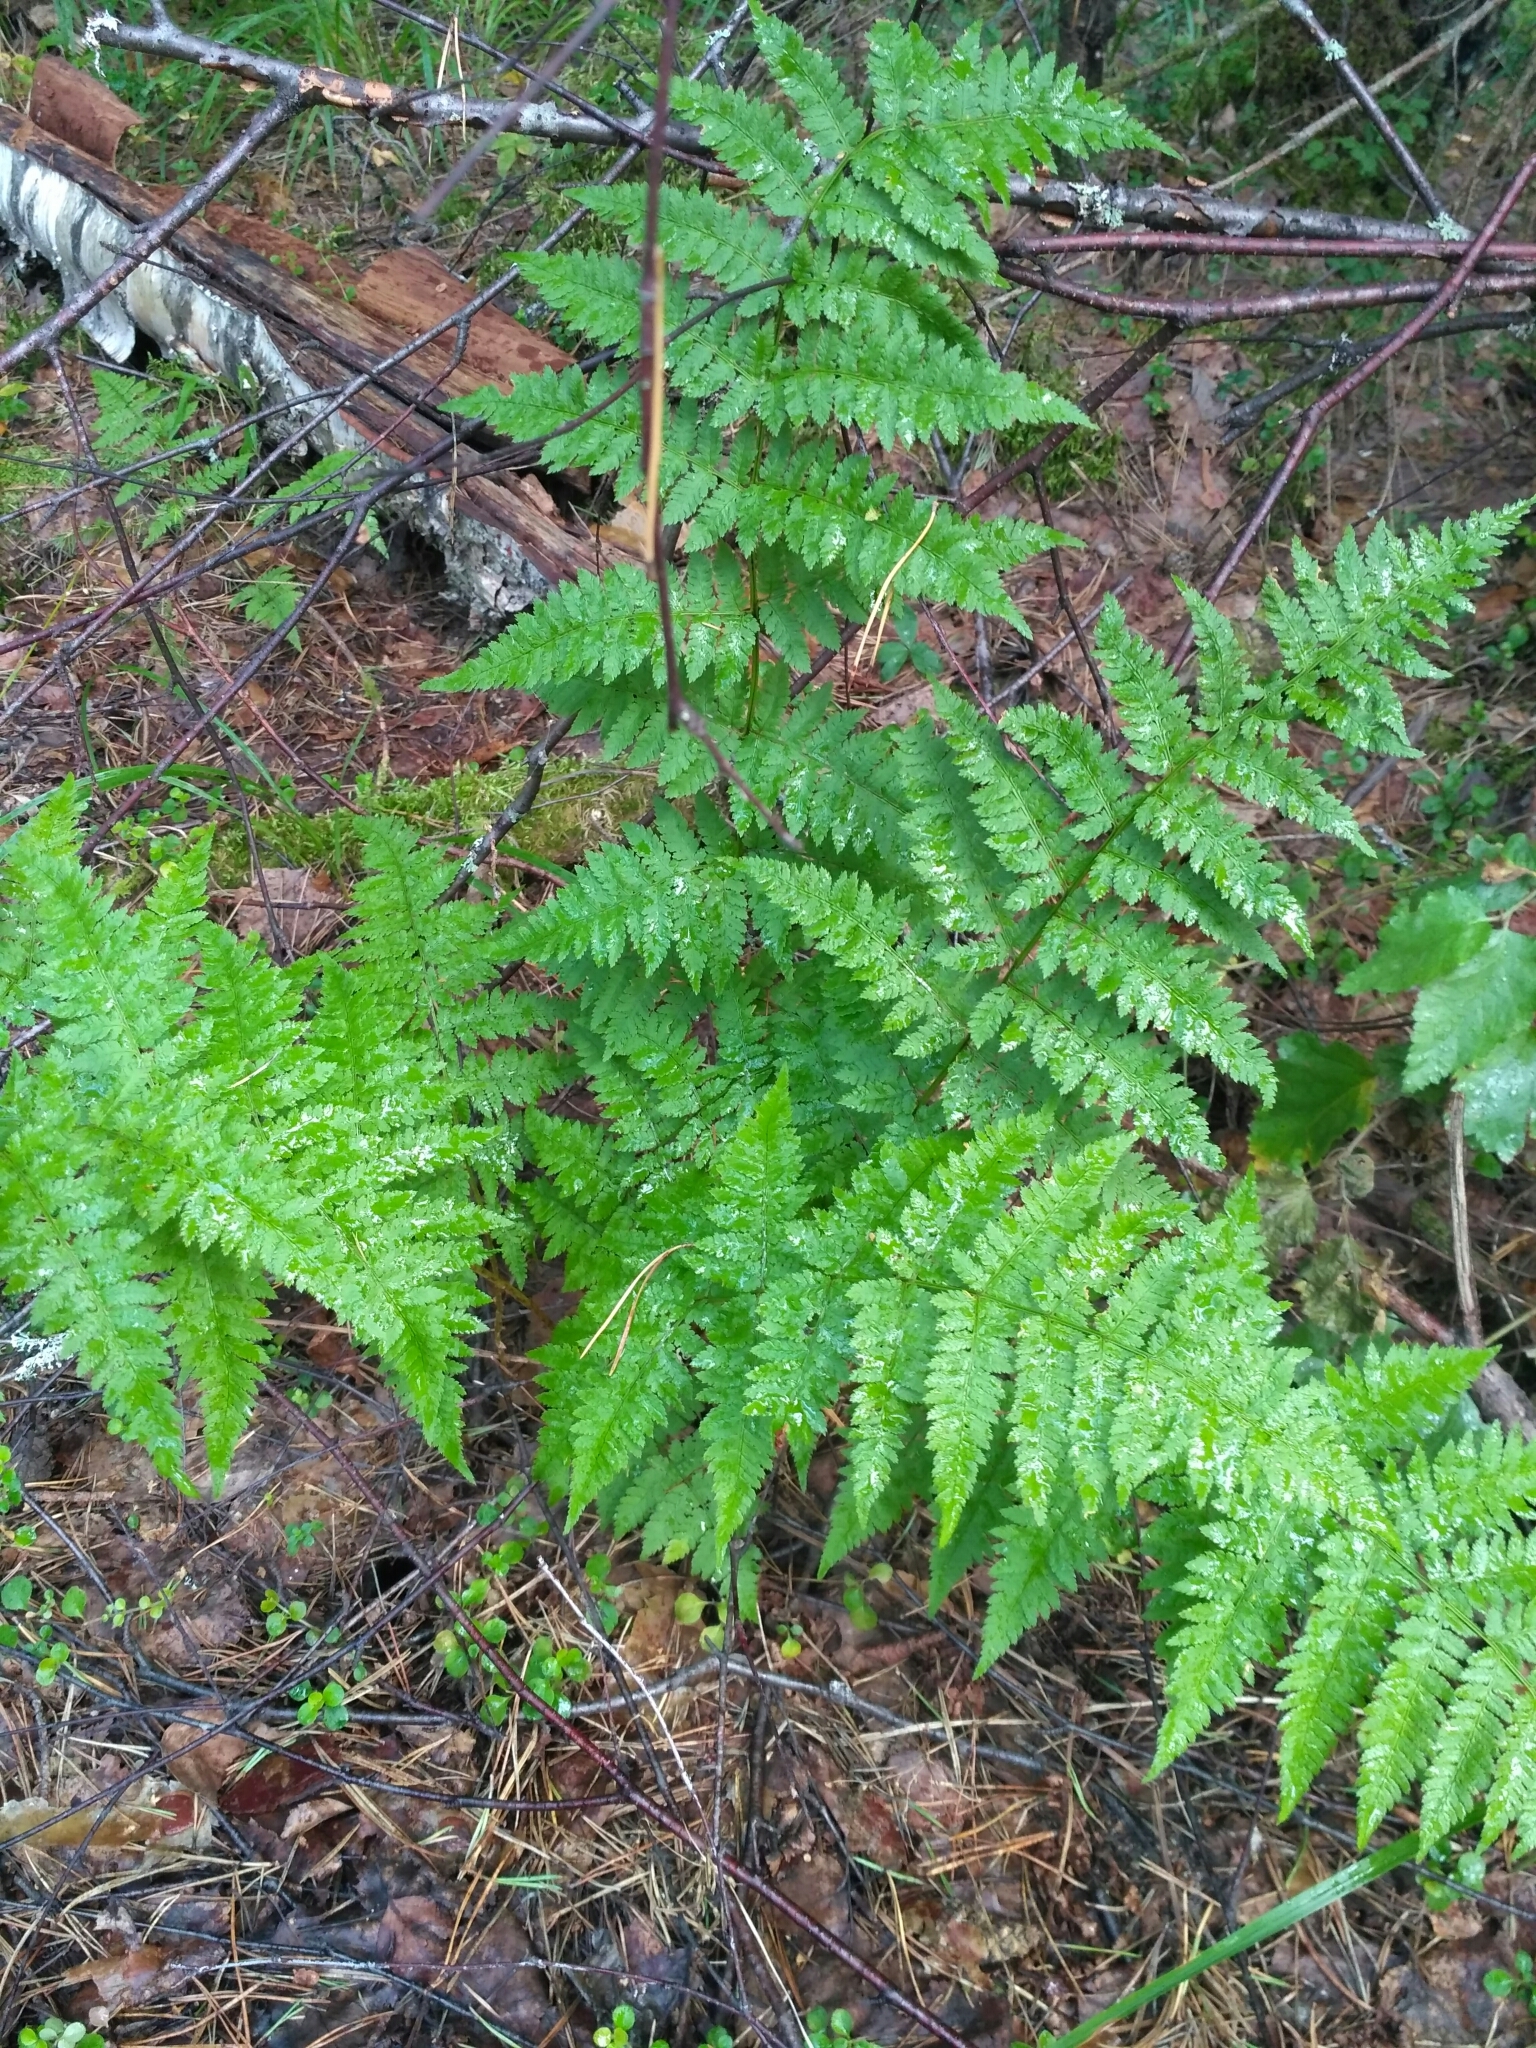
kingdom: Plantae
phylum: Tracheophyta
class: Polypodiopsida
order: Polypodiales
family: Dryopteridaceae
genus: Dryopteris
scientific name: Dryopteris carthusiana
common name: Narrow buckler-fern
